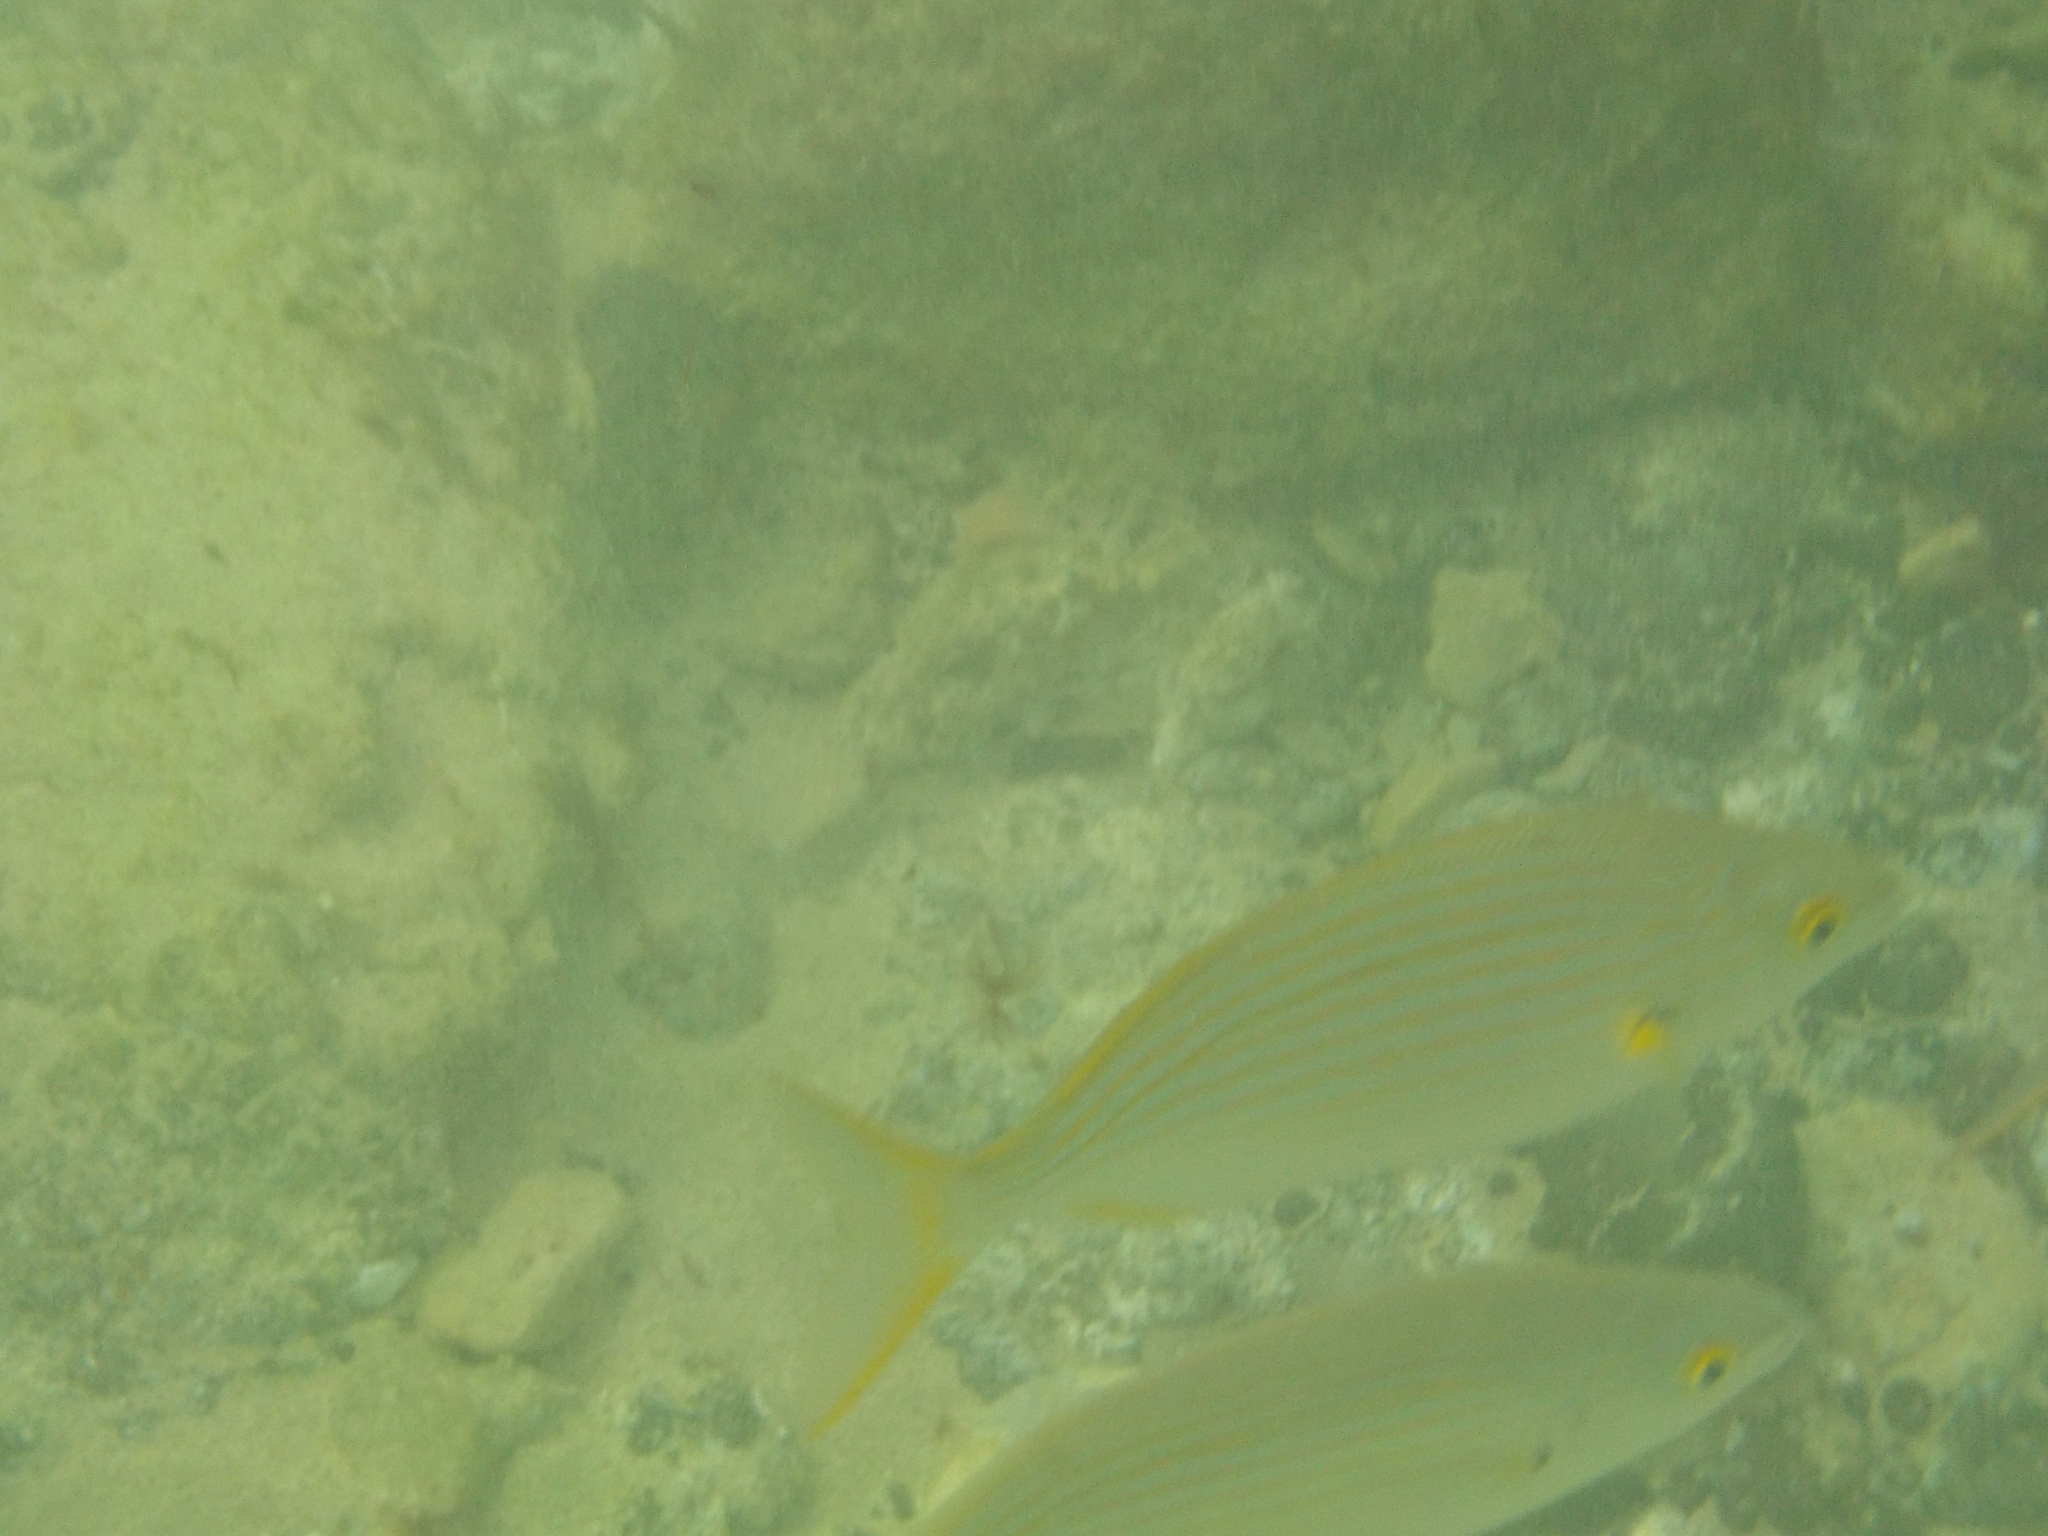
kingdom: Animalia
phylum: Chordata
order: Perciformes
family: Sparidae
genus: Sarpa
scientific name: Sarpa salpa
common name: Salema
